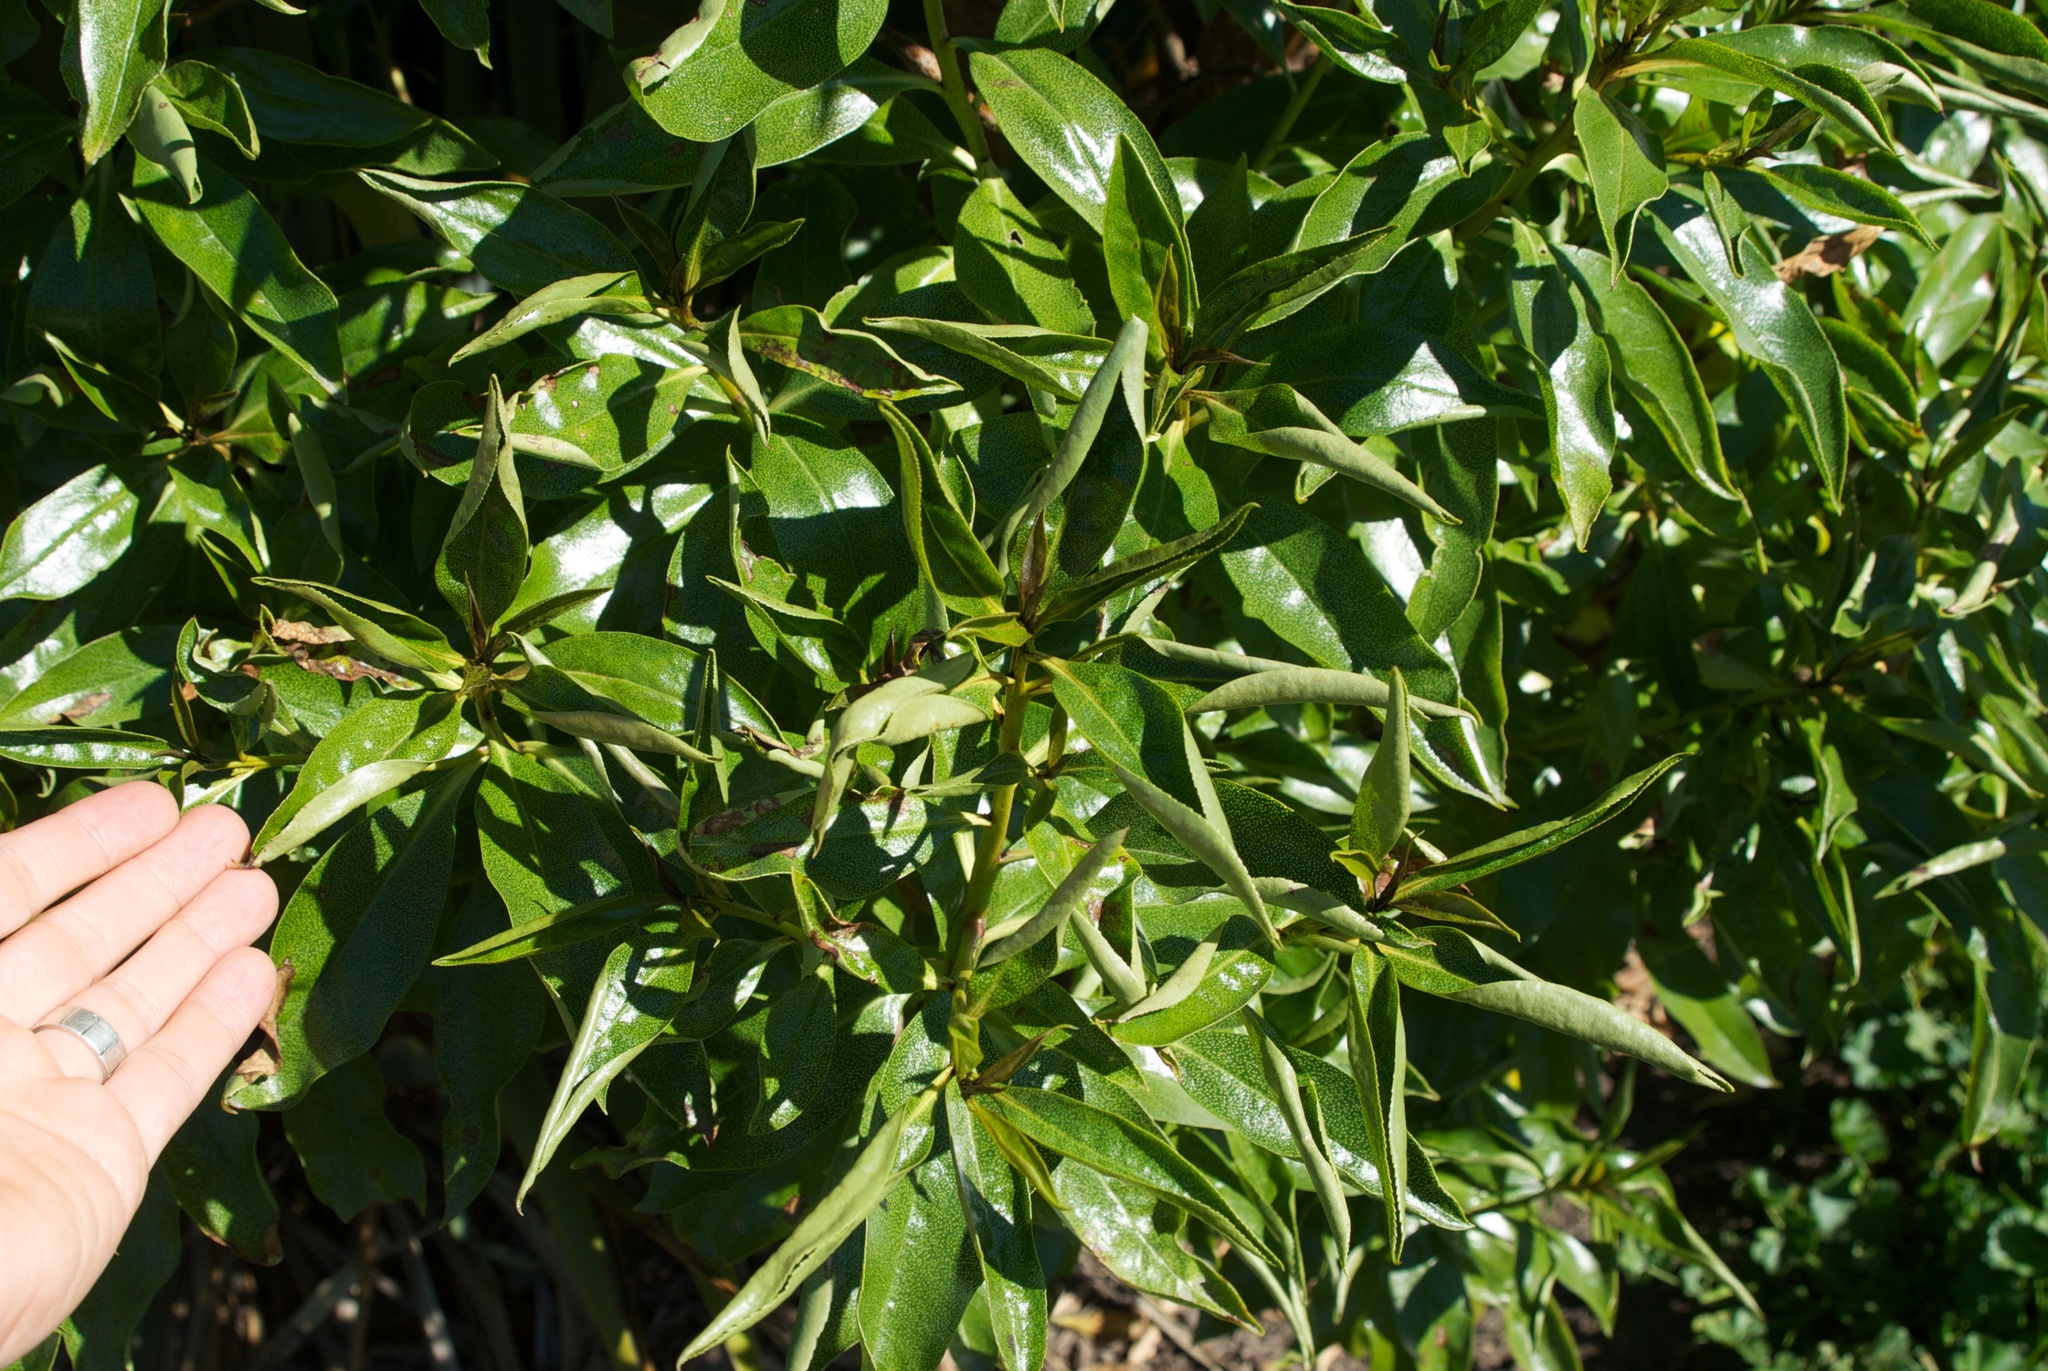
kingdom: Plantae
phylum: Tracheophyta
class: Magnoliopsida
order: Lamiales
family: Scrophulariaceae
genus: Myoporum
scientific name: Myoporum laetum
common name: Ngaio tree
